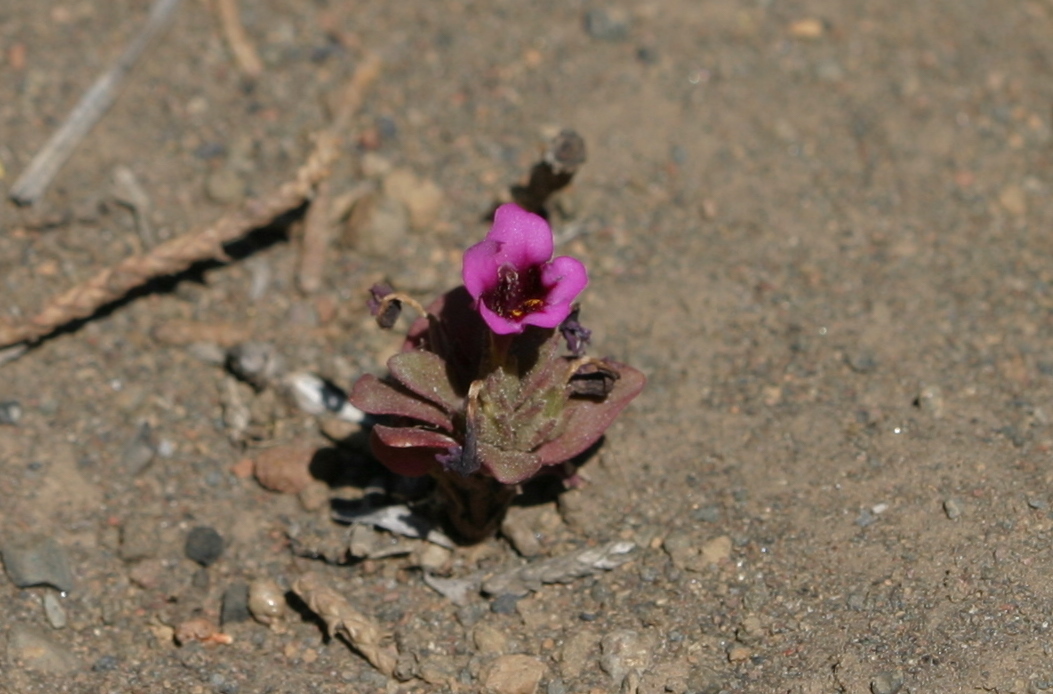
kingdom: Plantae
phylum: Tracheophyta
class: Magnoliopsida
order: Lamiales
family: Phrymaceae
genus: Diplacus
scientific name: Diplacus nanus
